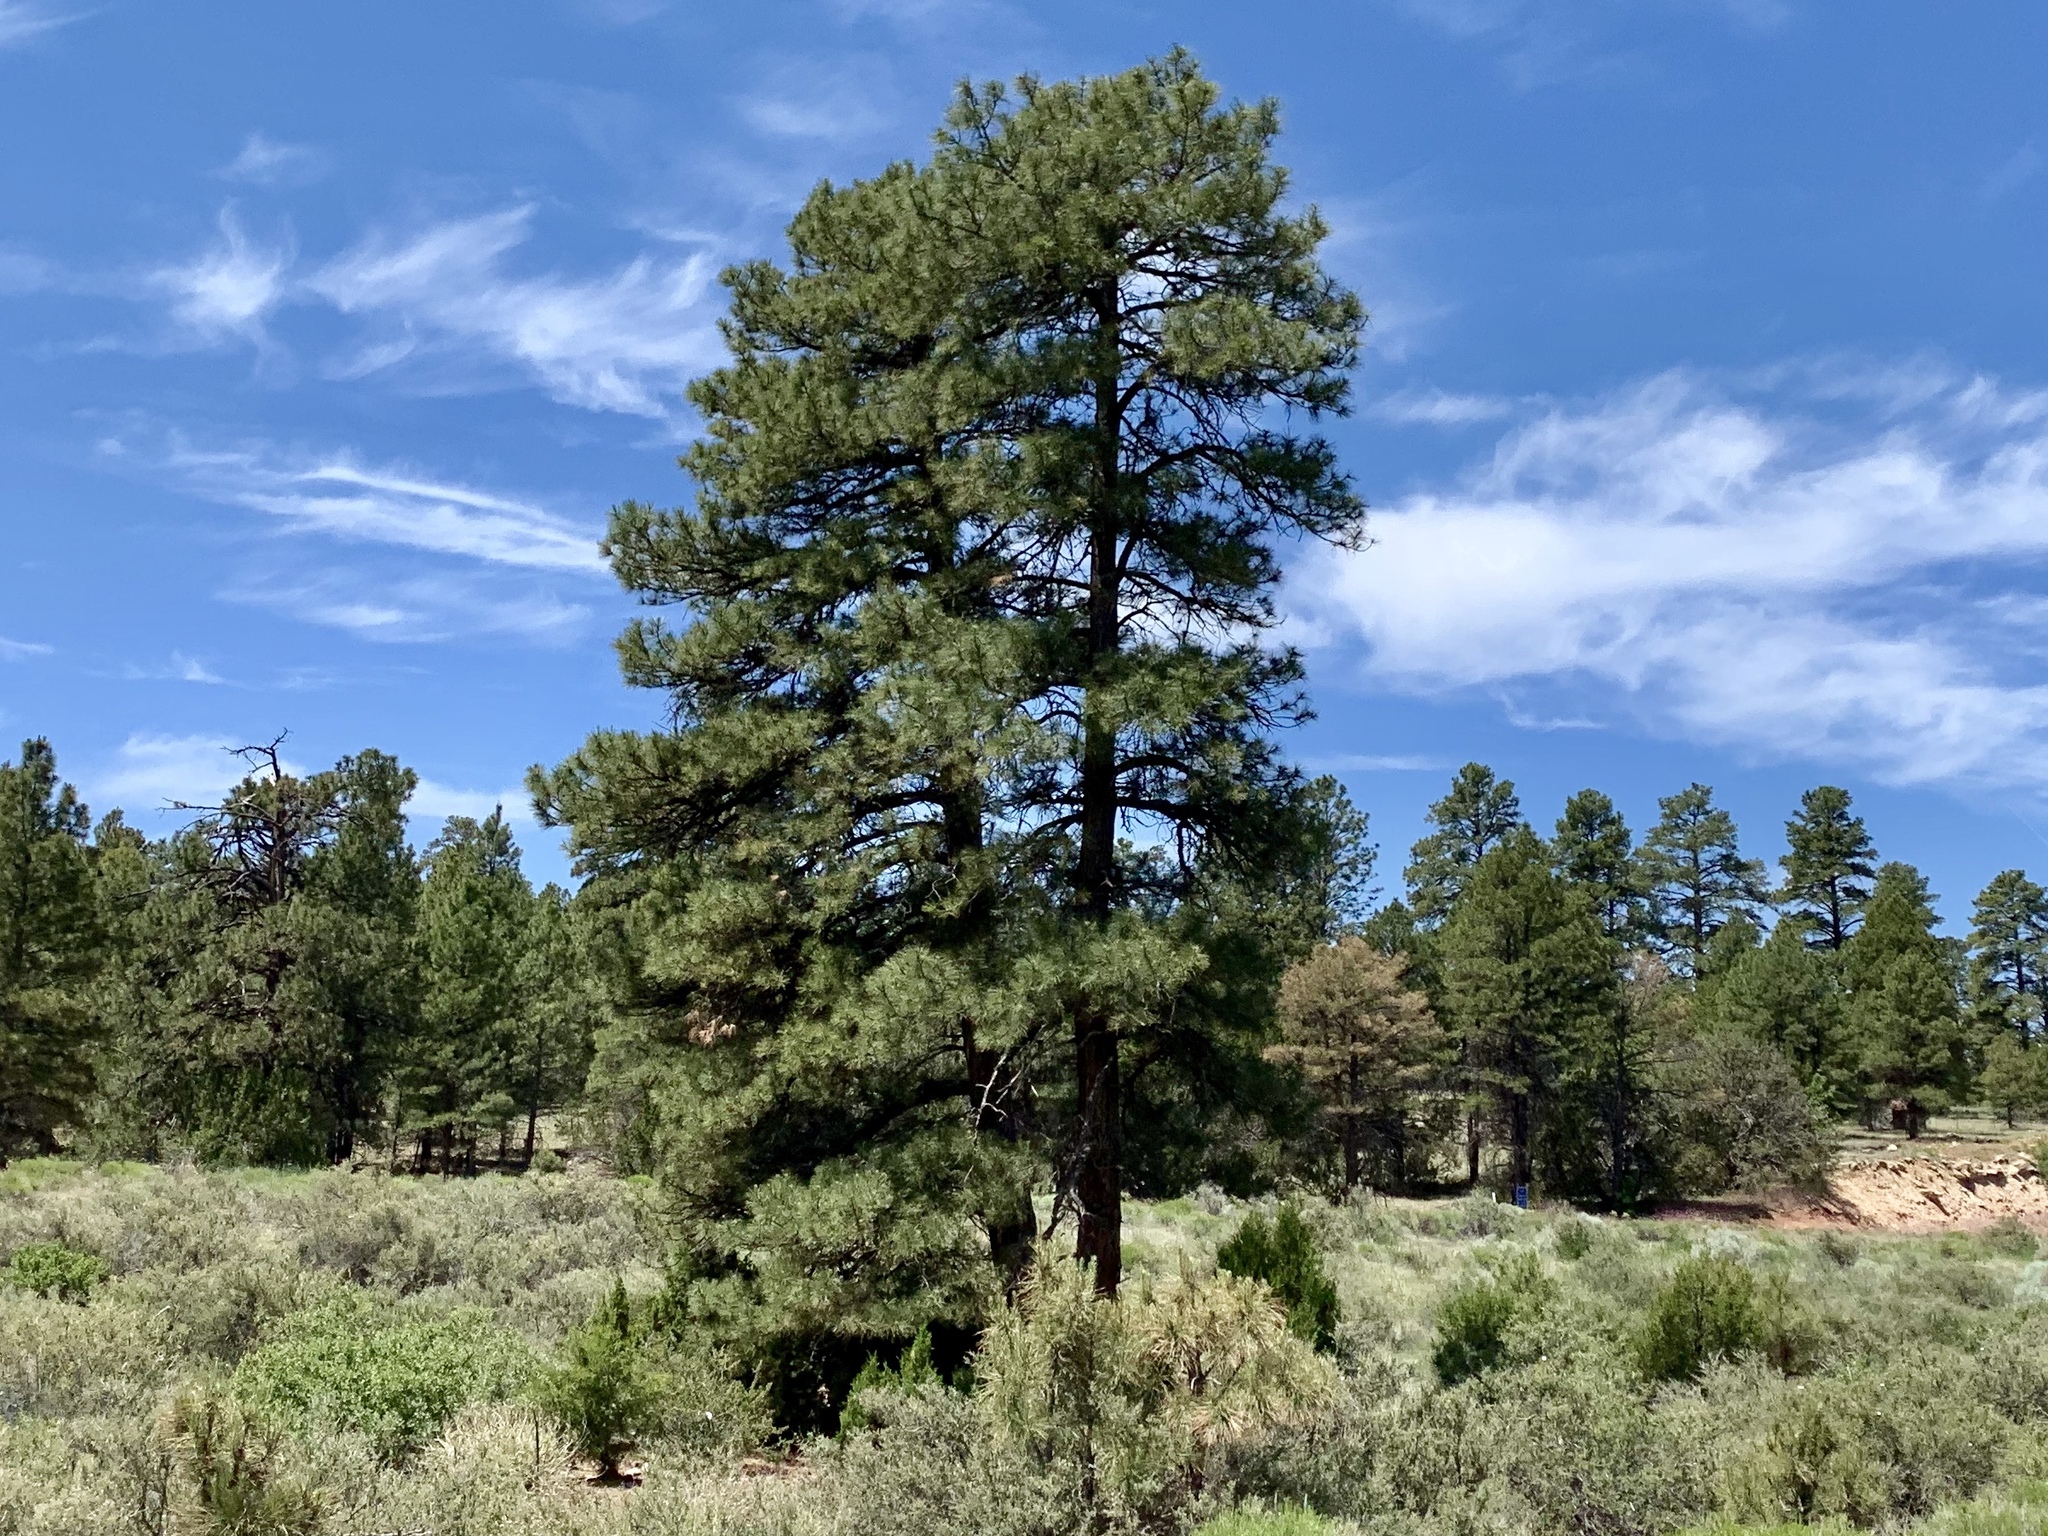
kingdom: Plantae
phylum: Tracheophyta
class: Pinopsida
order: Pinales
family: Pinaceae
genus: Pinus
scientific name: Pinus ponderosa
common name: Western yellow-pine
